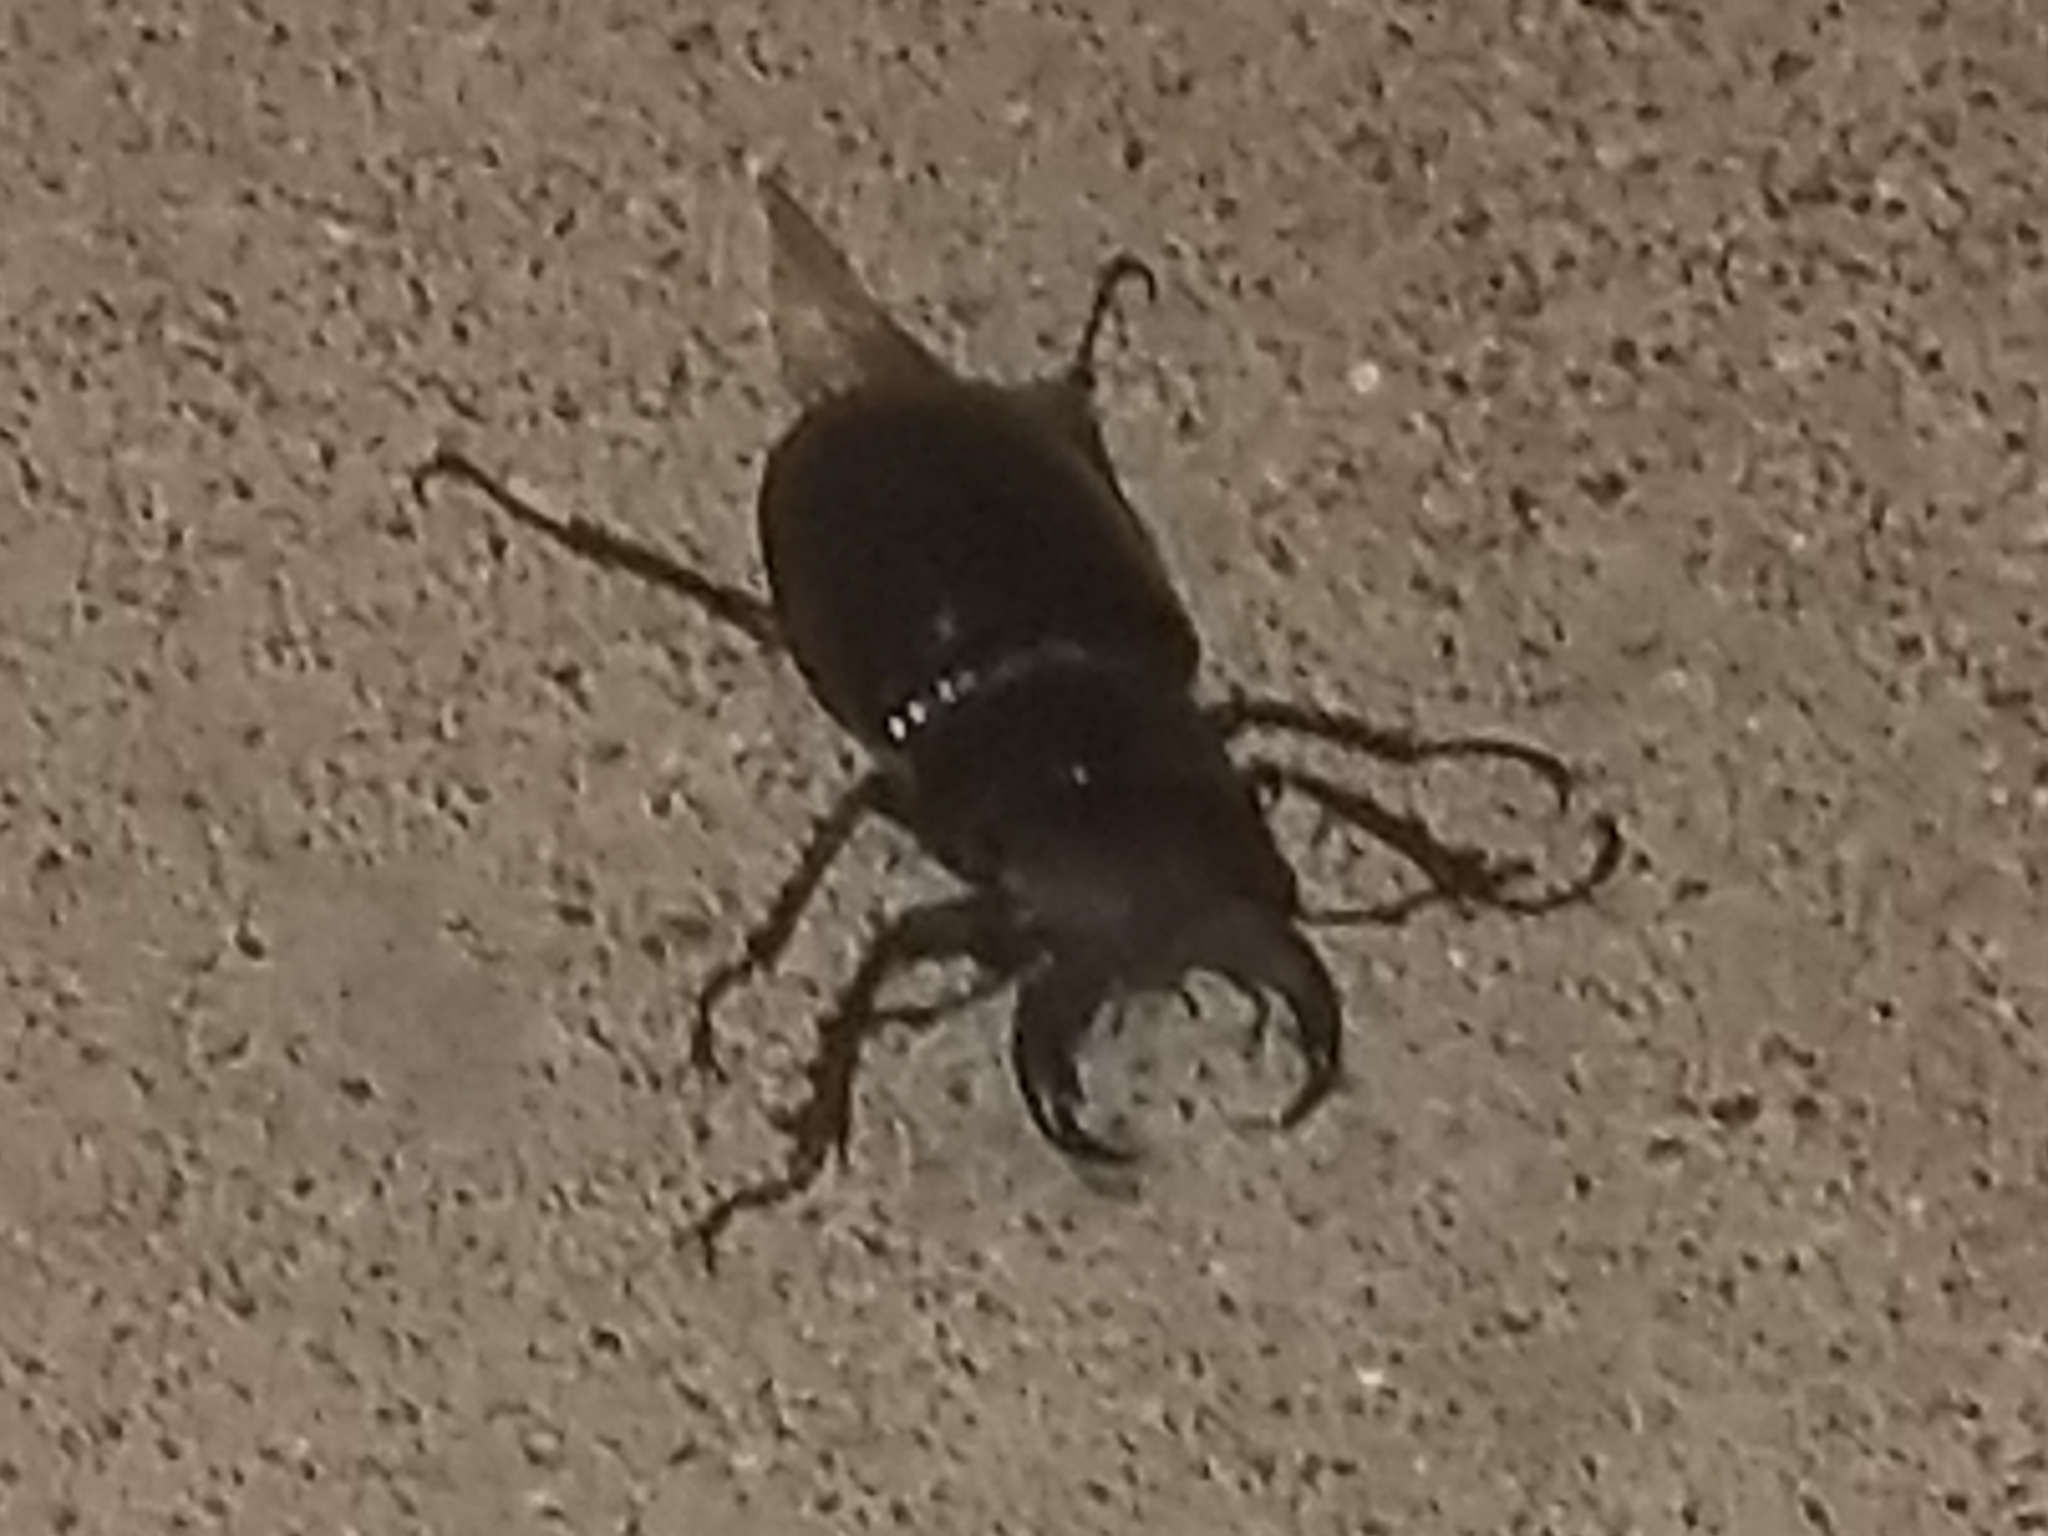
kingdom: Animalia
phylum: Arthropoda
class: Insecta
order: Coleoptera
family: Lucanidae
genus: Lucanus
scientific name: Lucanus capreolus
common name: Stag beetle
